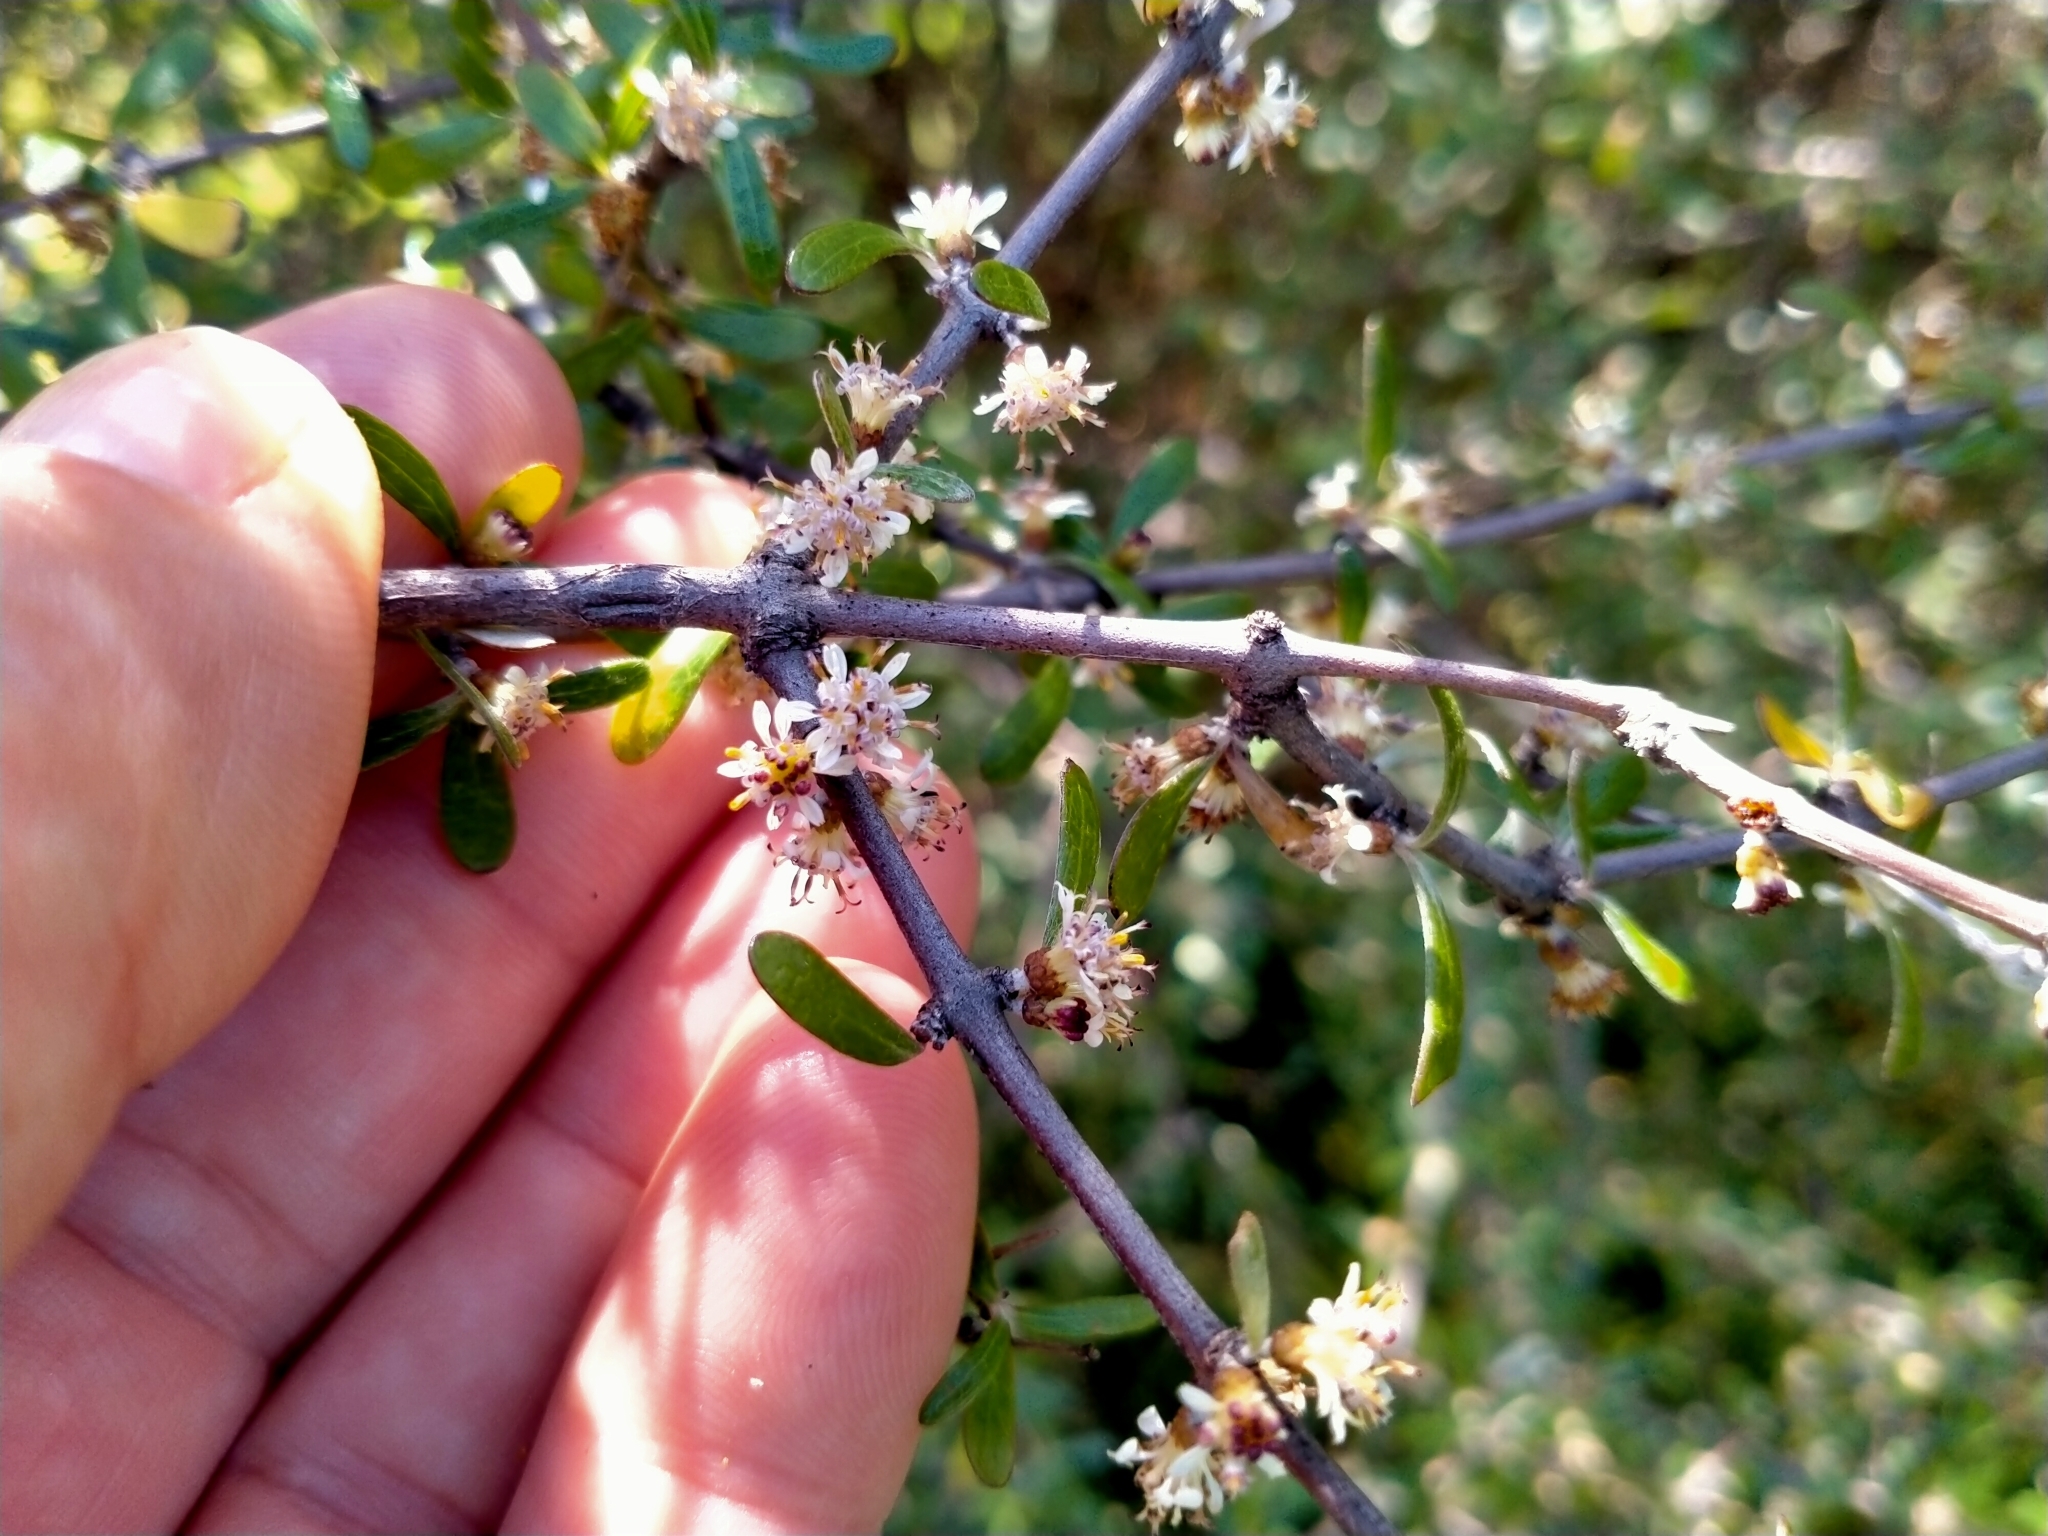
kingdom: Plantae
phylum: Tracheophyta
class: Magnoliopsida
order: Asterales
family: Asteraceae
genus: Olearia
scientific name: Olearia odorata
